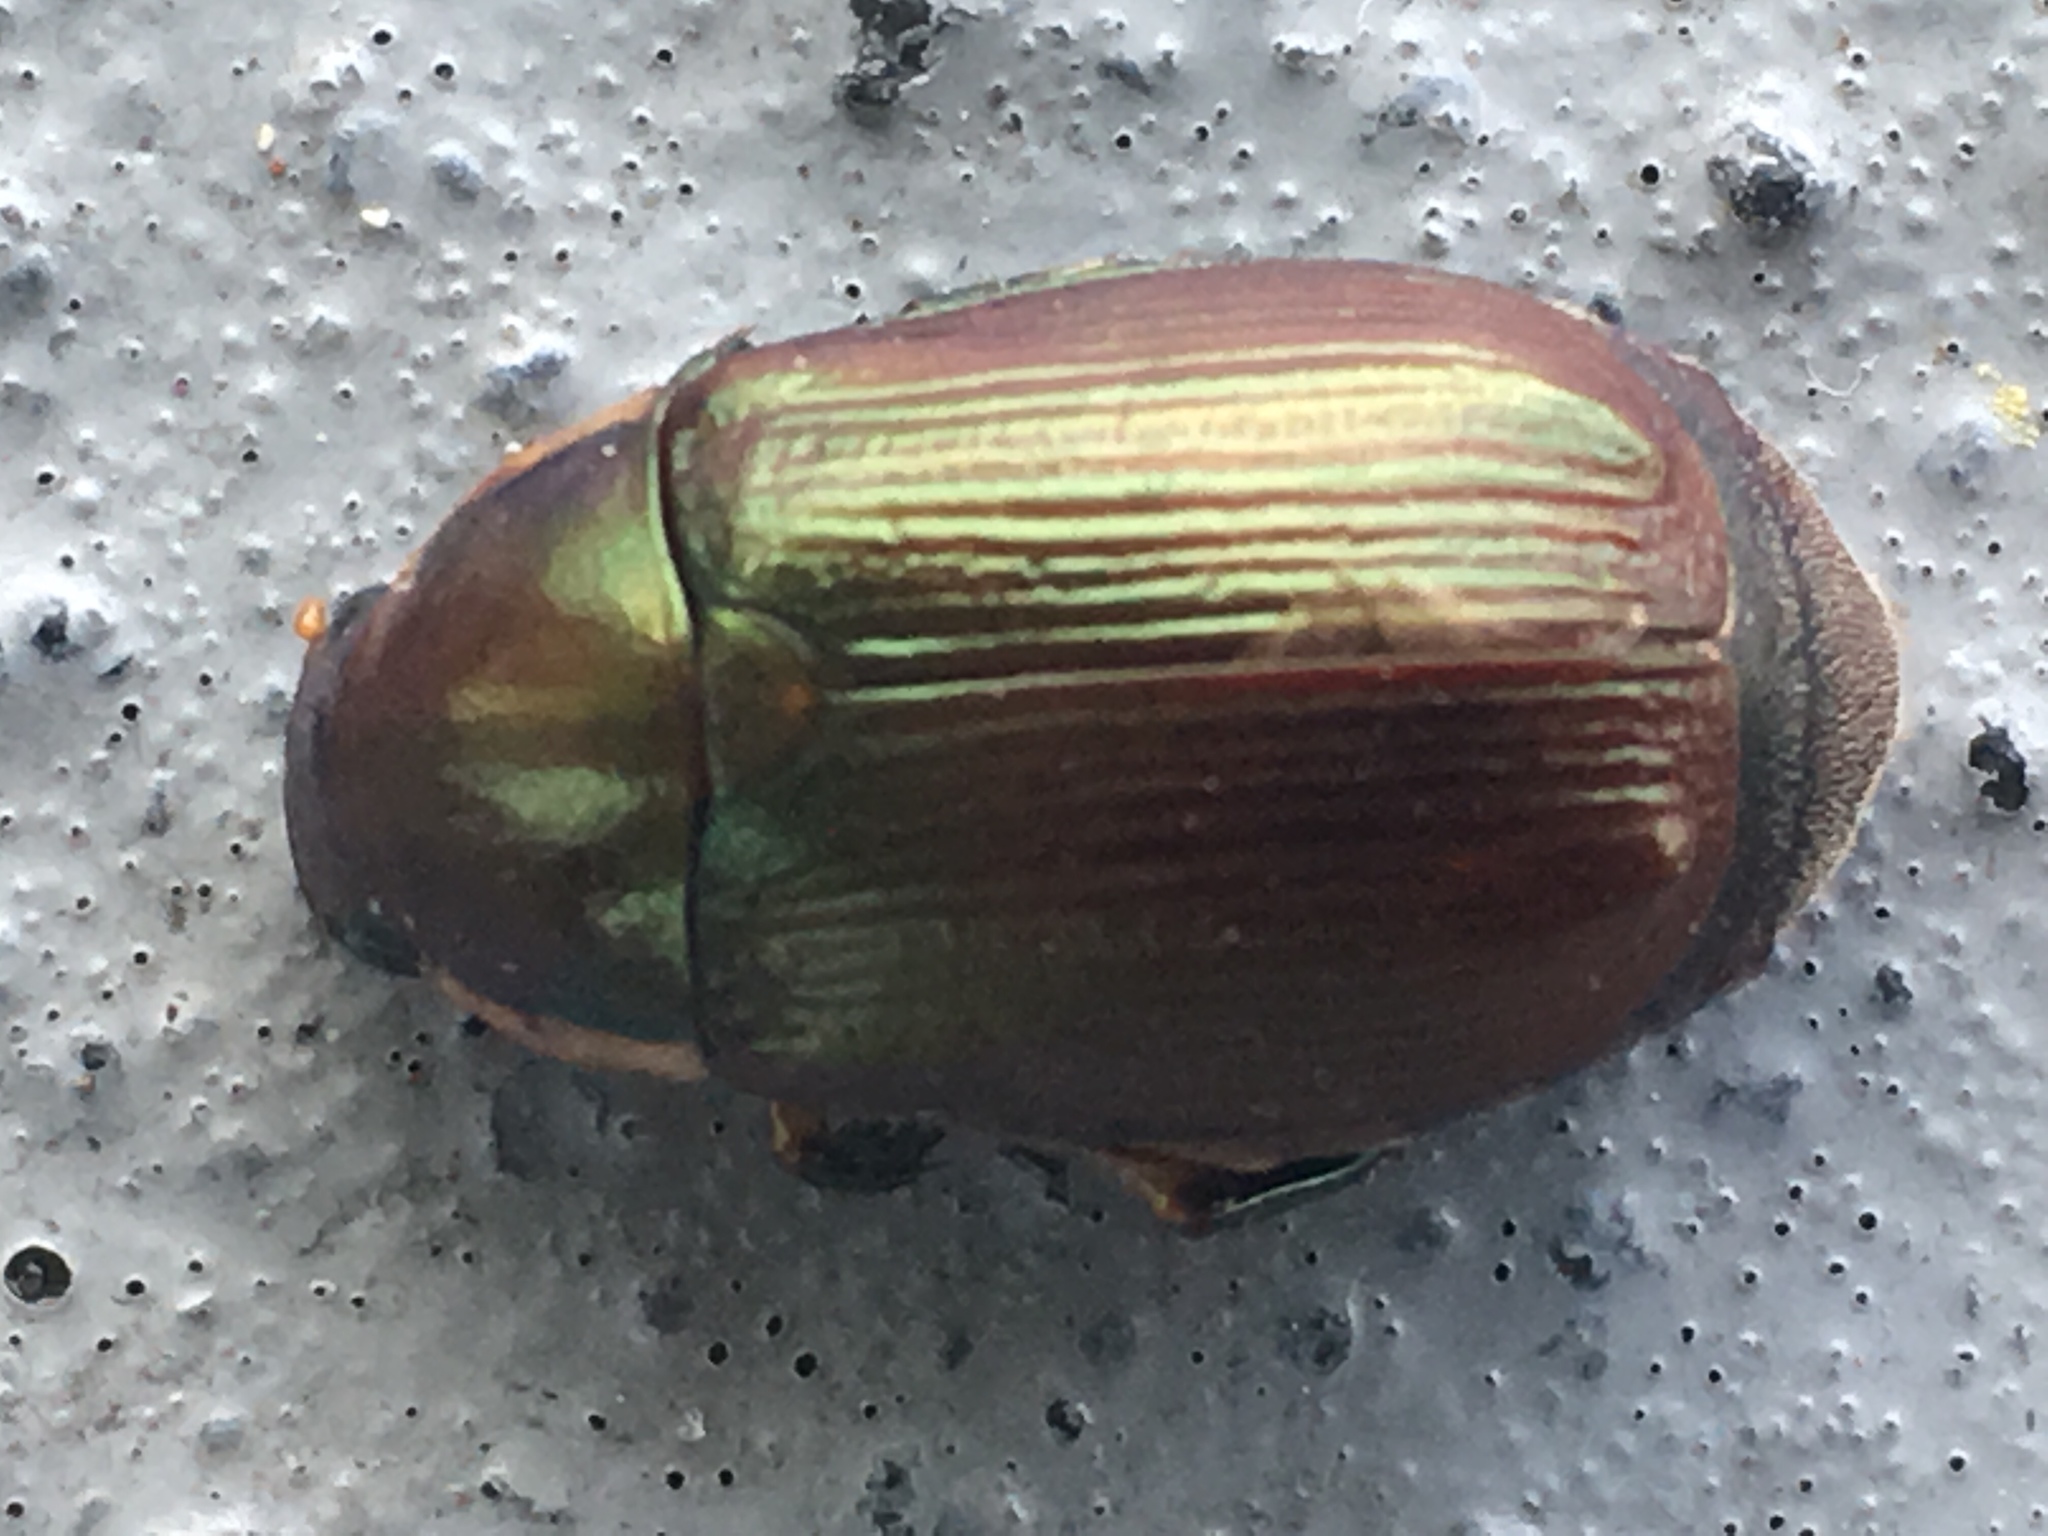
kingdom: Animalia
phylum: Arthropoda
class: Insecta
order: Coleoptera
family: Scarabaeidae
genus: Callistethus
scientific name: Callistethus marginatus
